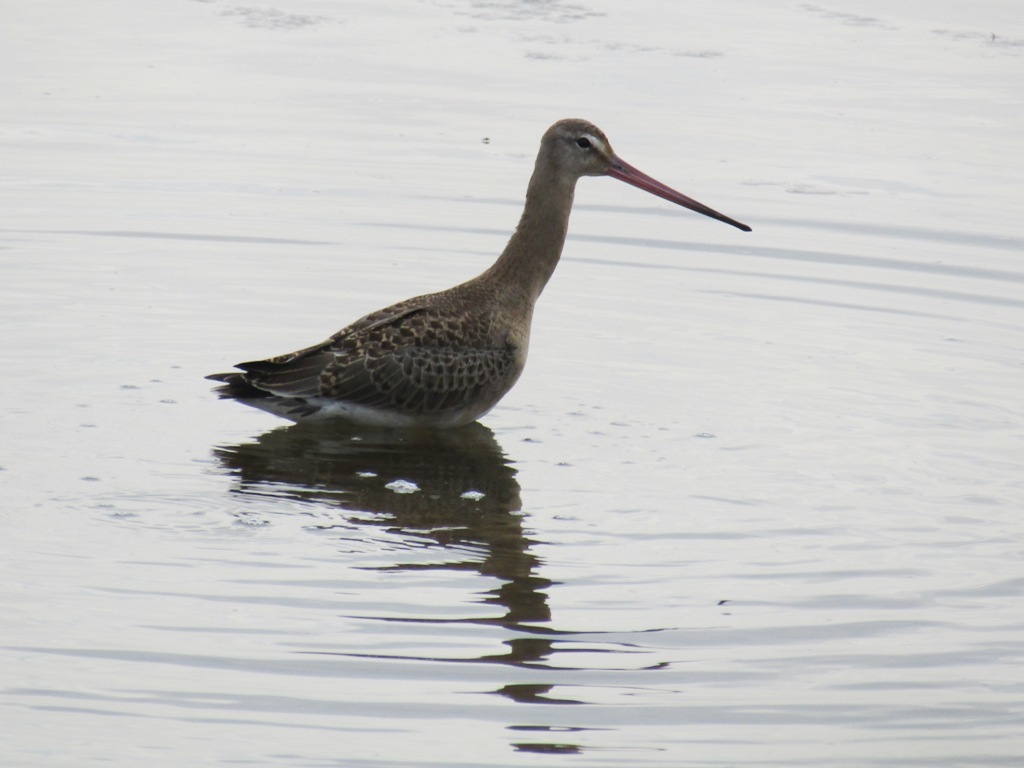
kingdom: Animalia
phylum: Chordata
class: Aves
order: Charadriiformes
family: Scolopacidae
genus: Limosa
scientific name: Limosa limosa
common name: Black-tailed godwit
